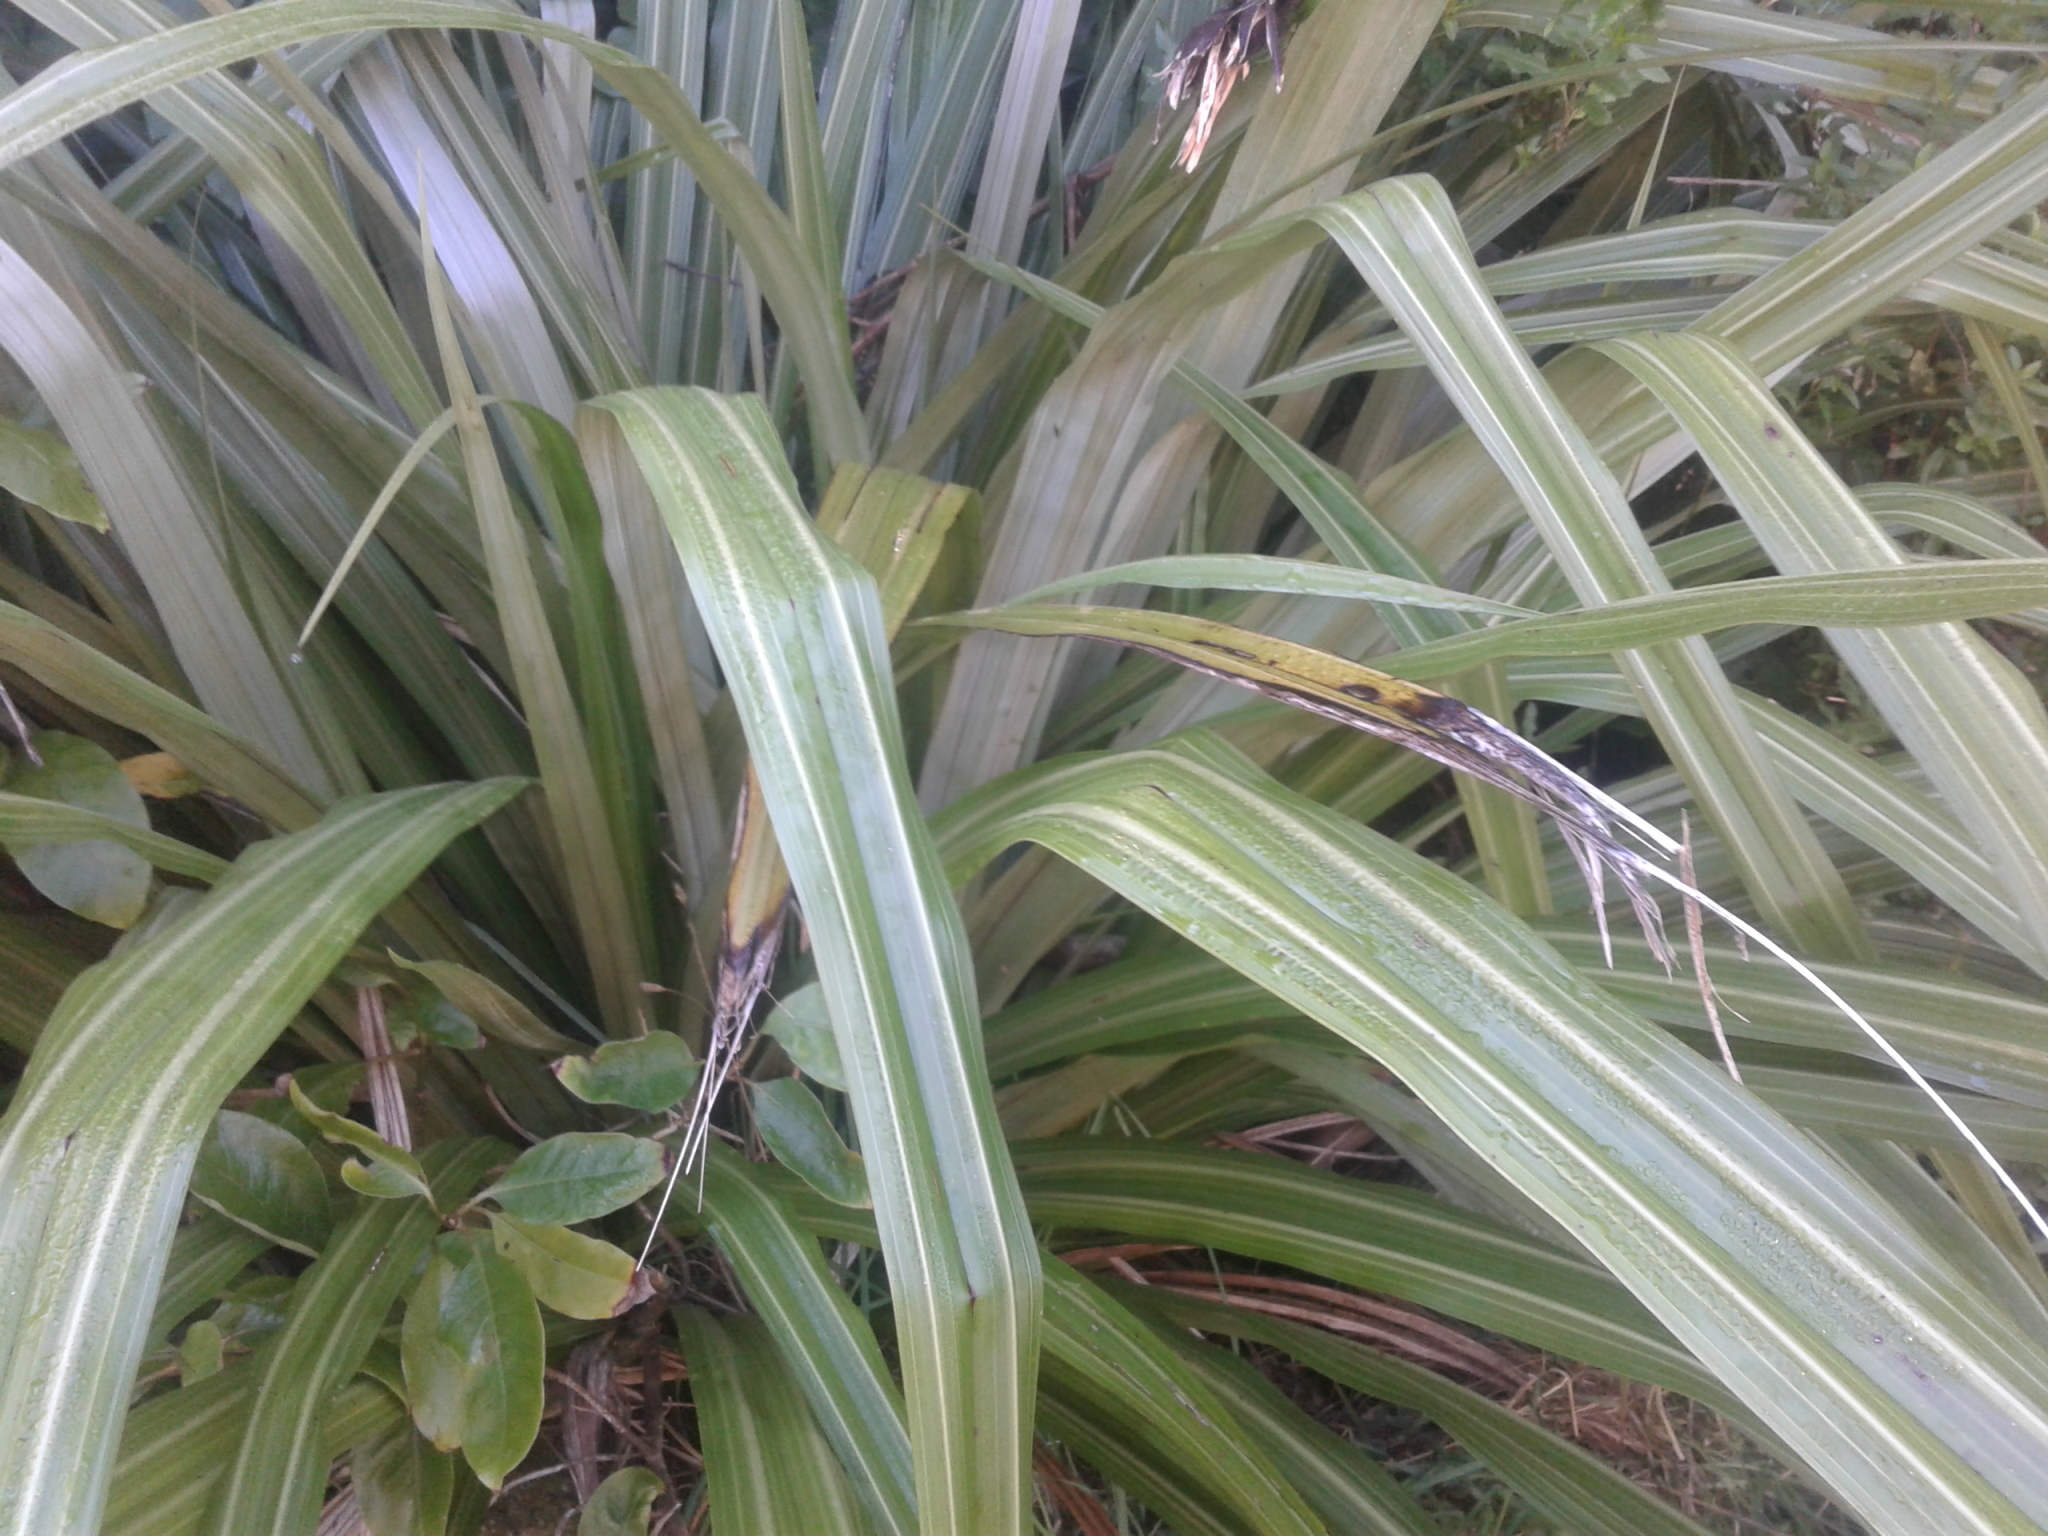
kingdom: Plantae
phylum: Tracheophyta
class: Liliopsida
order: Asparagales
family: Asteliaceae
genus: Astelia
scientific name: Astelia nervosa
